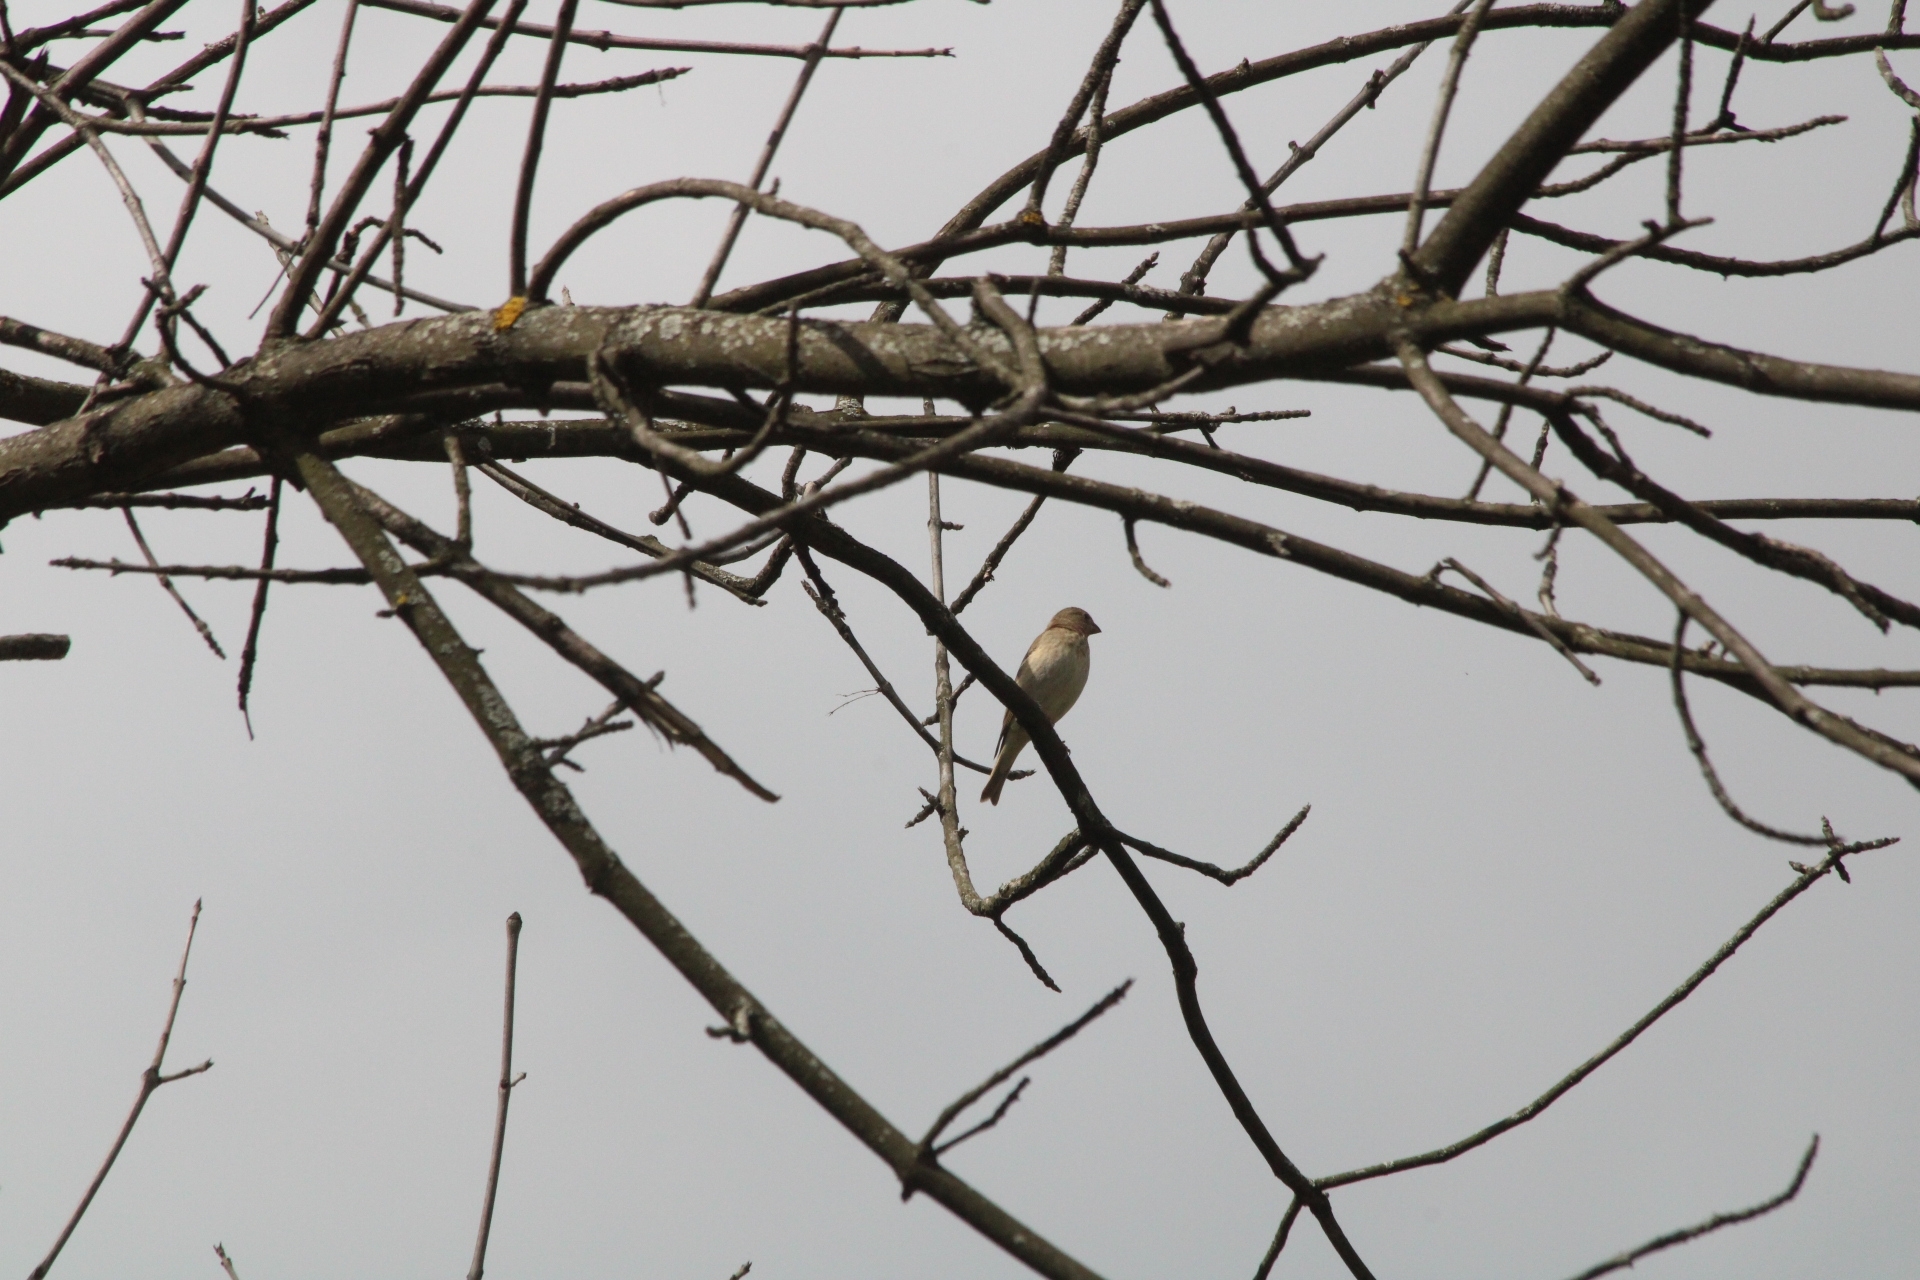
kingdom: Animalia
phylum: Chordata
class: Aves
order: Passeriformes
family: Fringillidae
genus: Carpodacus
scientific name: Carpodacus erythrinus
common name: Common rosefinch
